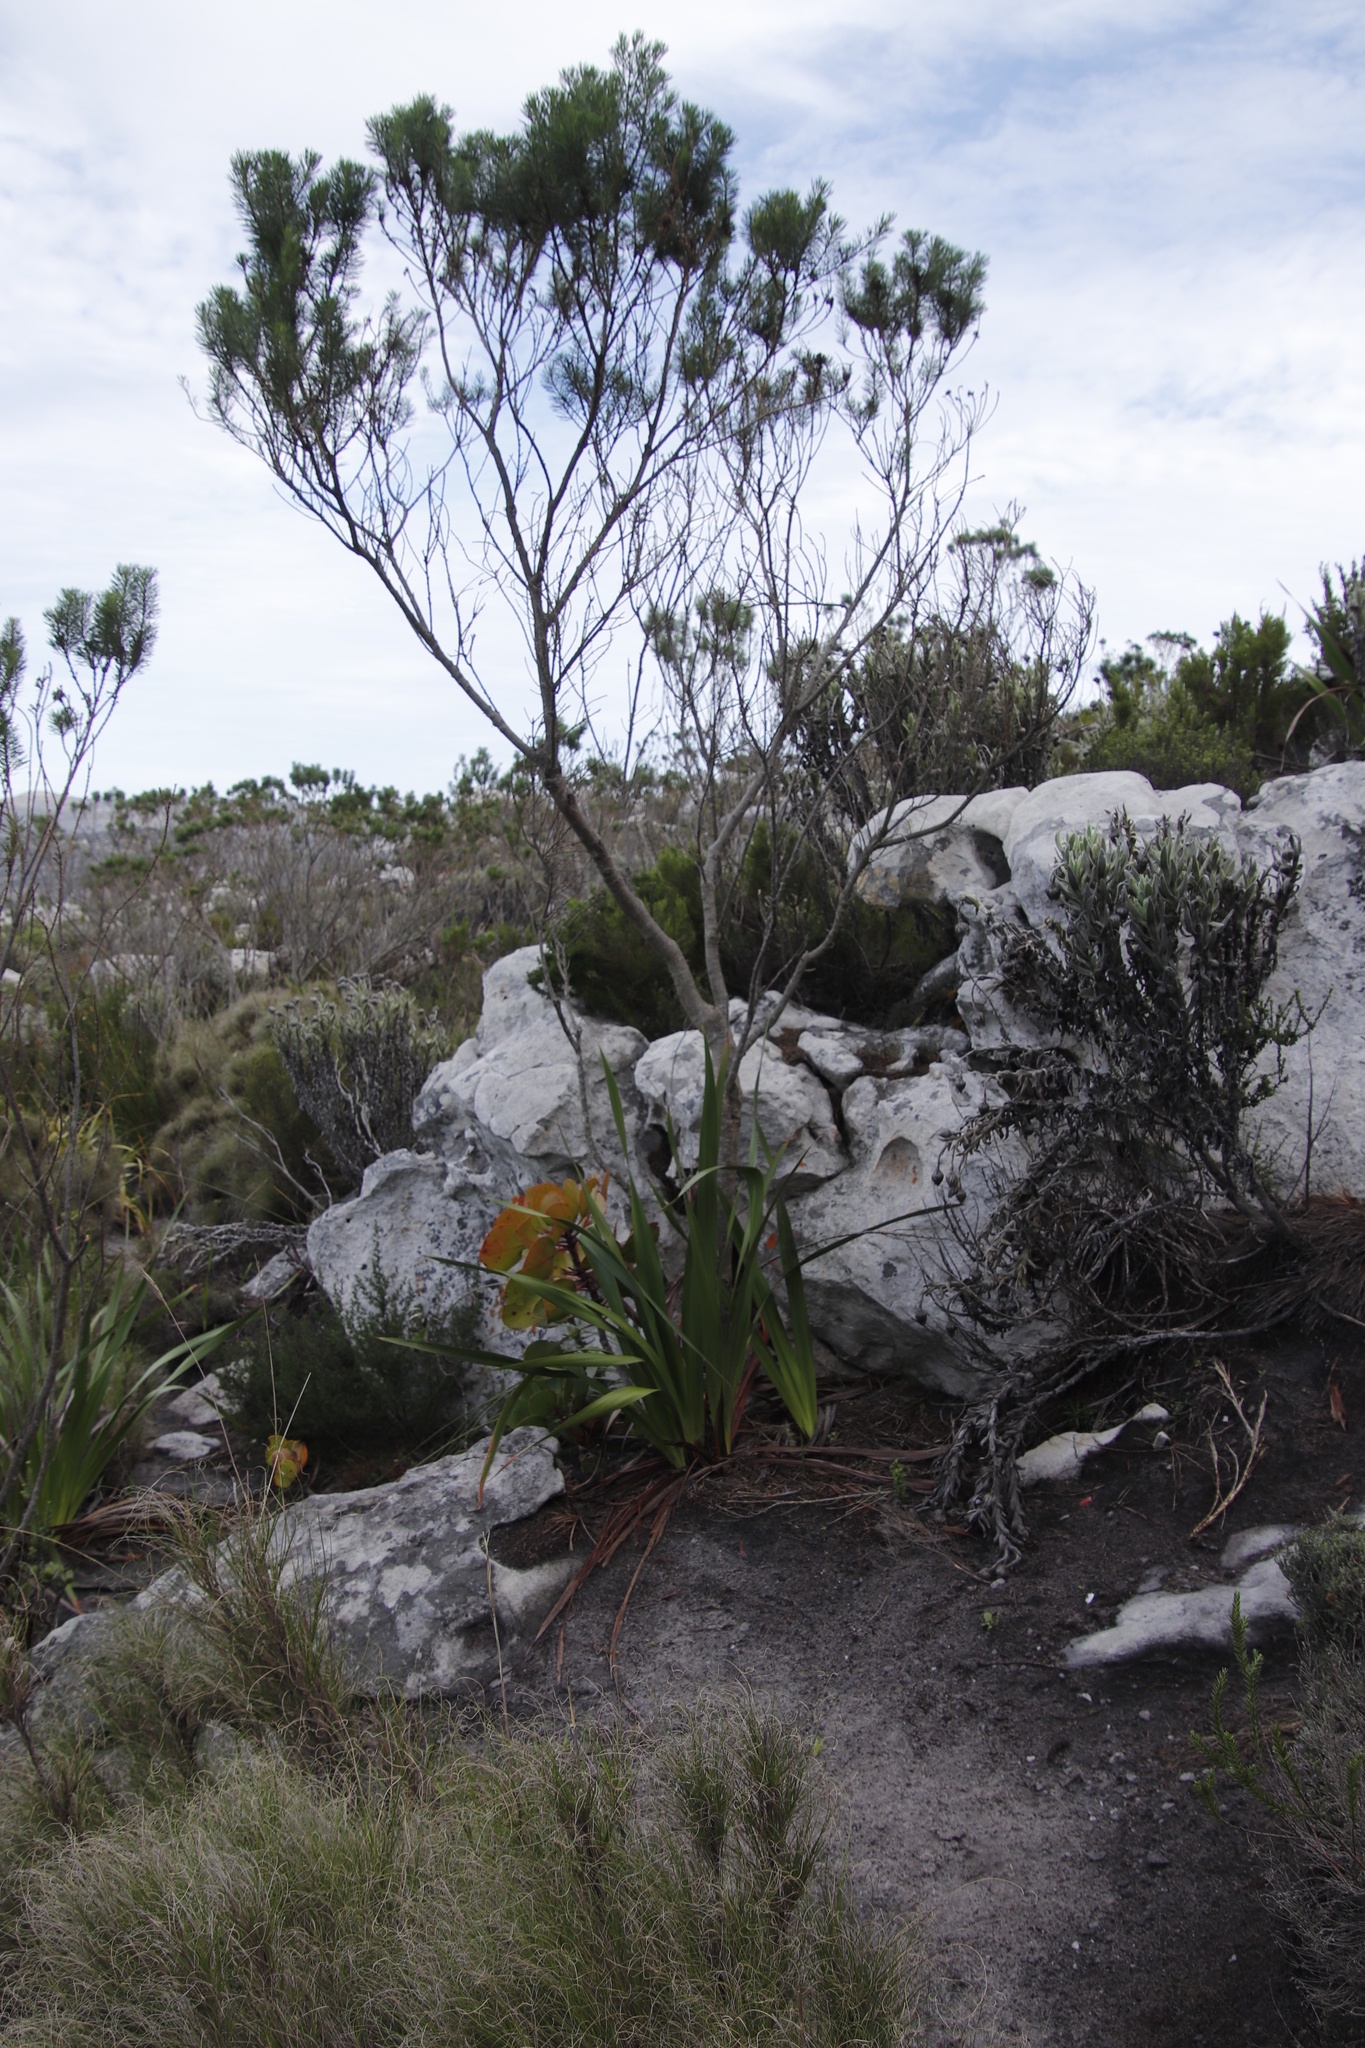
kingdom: Plantae
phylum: Tracheophyta
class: Magnoliopsida
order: Fabales
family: Fabaceae
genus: Psoralea
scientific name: Psoralea pinnata
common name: African scurfpea
